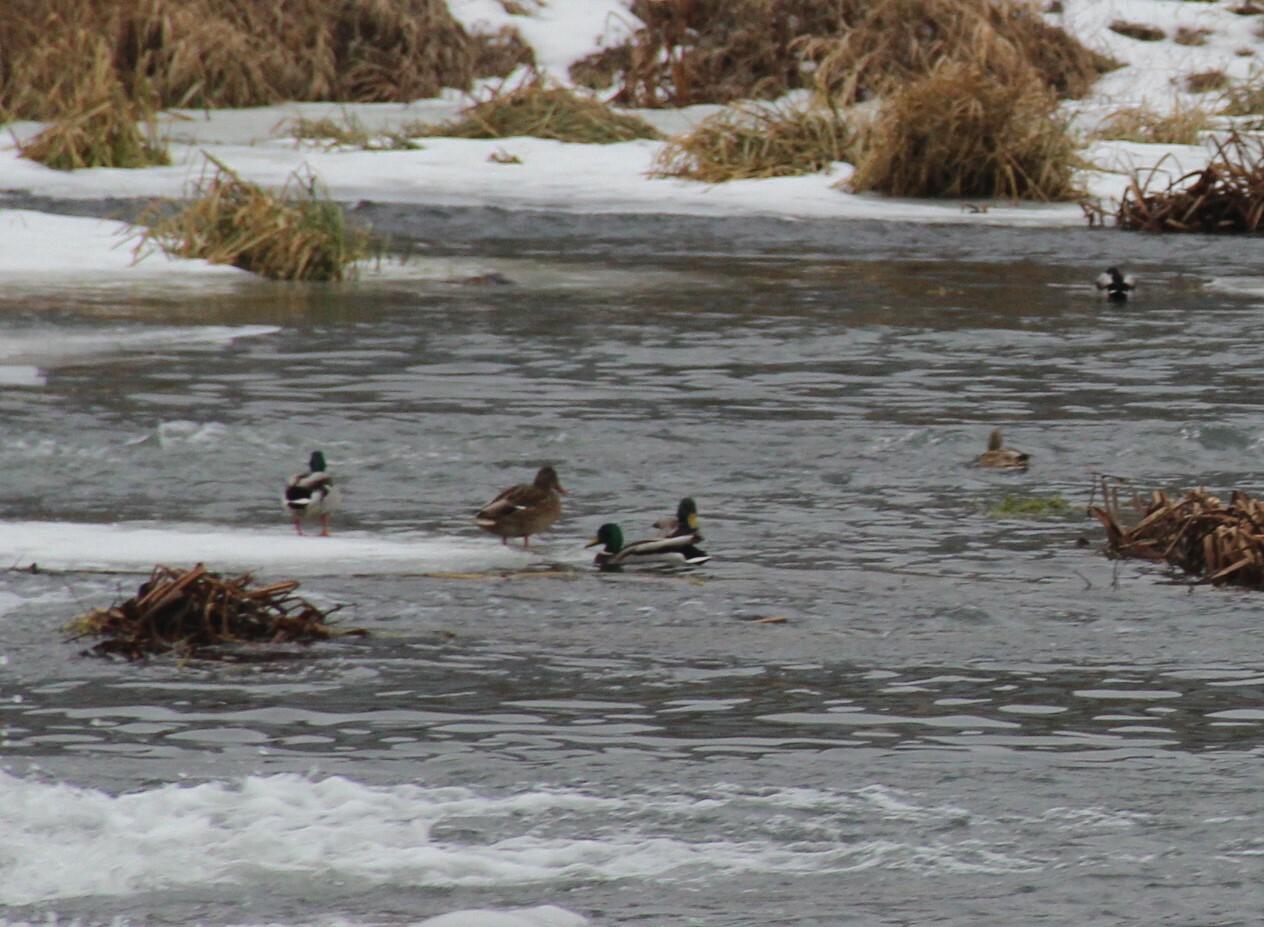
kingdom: Animalia
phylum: Chordata
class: Aves
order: Anseriformes
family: Anatidae
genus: Anas
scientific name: Anas platyrhynchos
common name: Mallard
